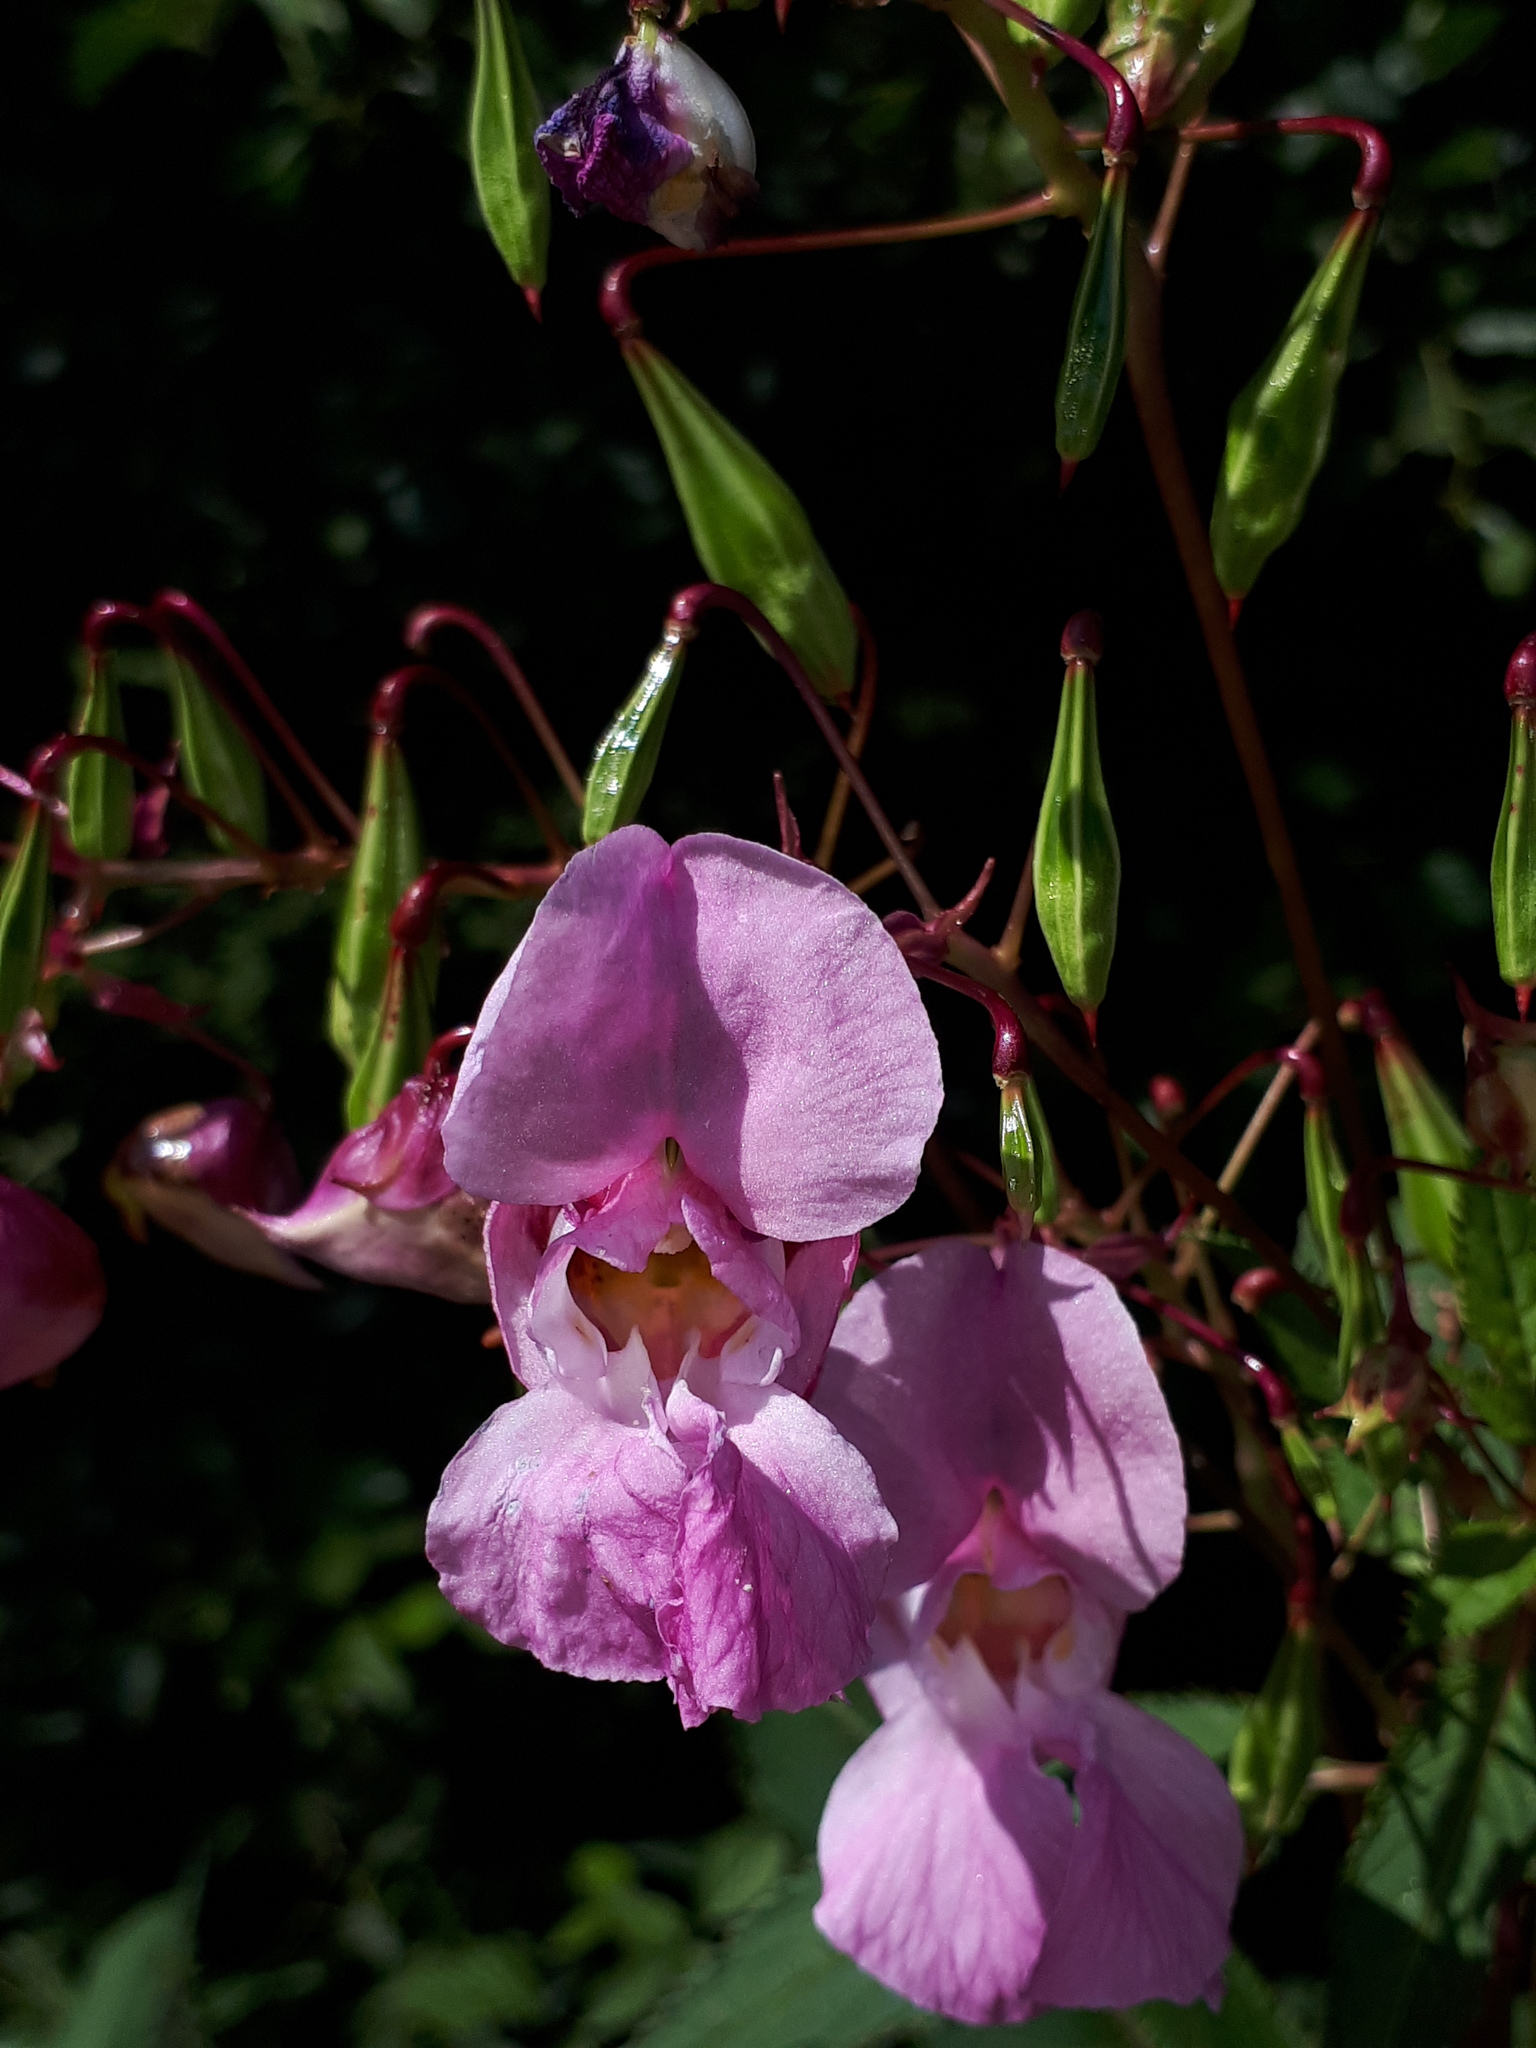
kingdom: Plantae
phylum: Tracheophyta
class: Magnoliopsida
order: Ericales
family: Balsaminaceae
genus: Impatiens
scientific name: Impatiens glandulifera
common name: Himalayan balsam
